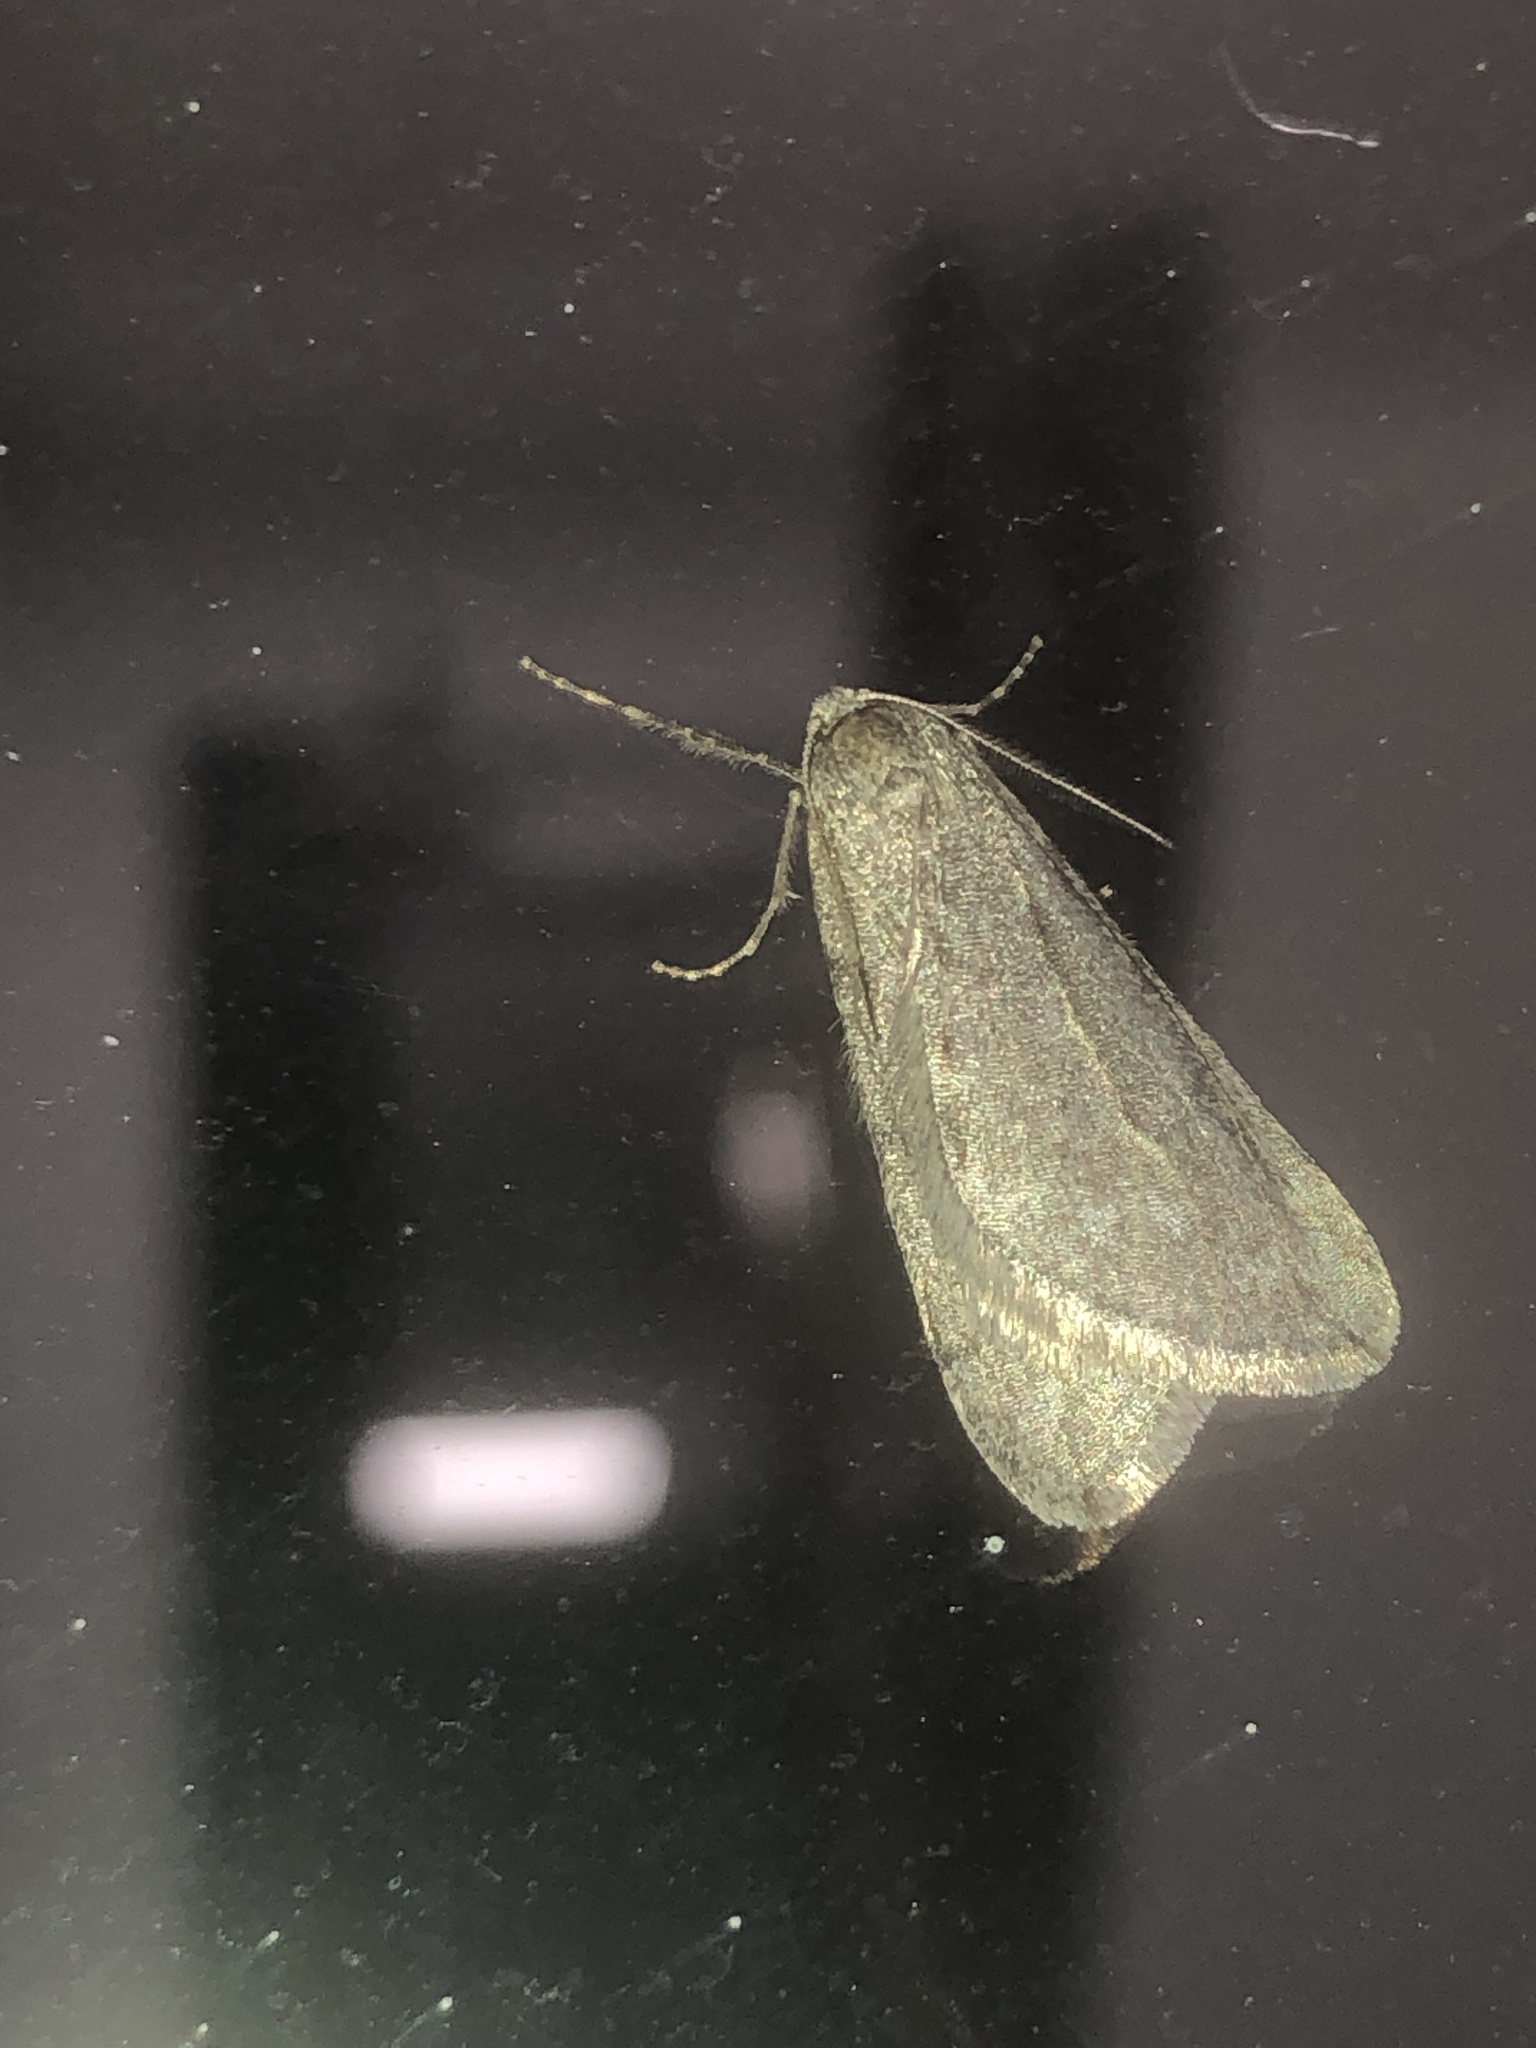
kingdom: Animalia
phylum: Arthropoda
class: Insecta
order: Lepidoptera
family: Geometridae
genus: Paleacrita
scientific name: Paleacrita vernata
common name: Spring cankerworm
